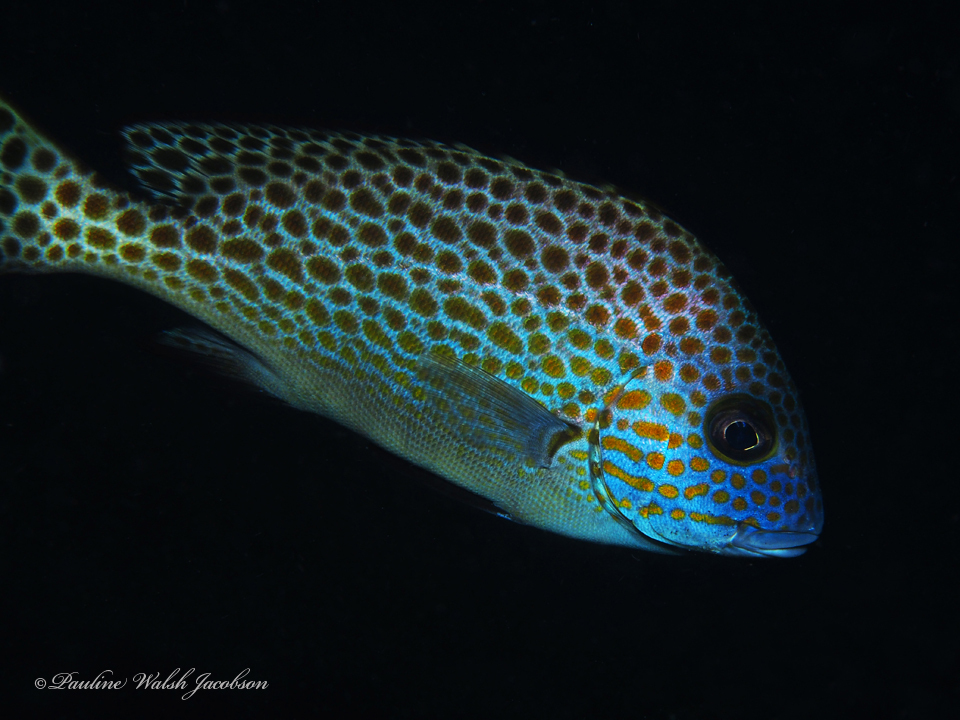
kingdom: Animalia
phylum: Chordata
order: Perciformes
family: Haemulidae
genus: Plectorhinchus
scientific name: Plectorhinchus flavomaculatus
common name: Netted sweetlips
